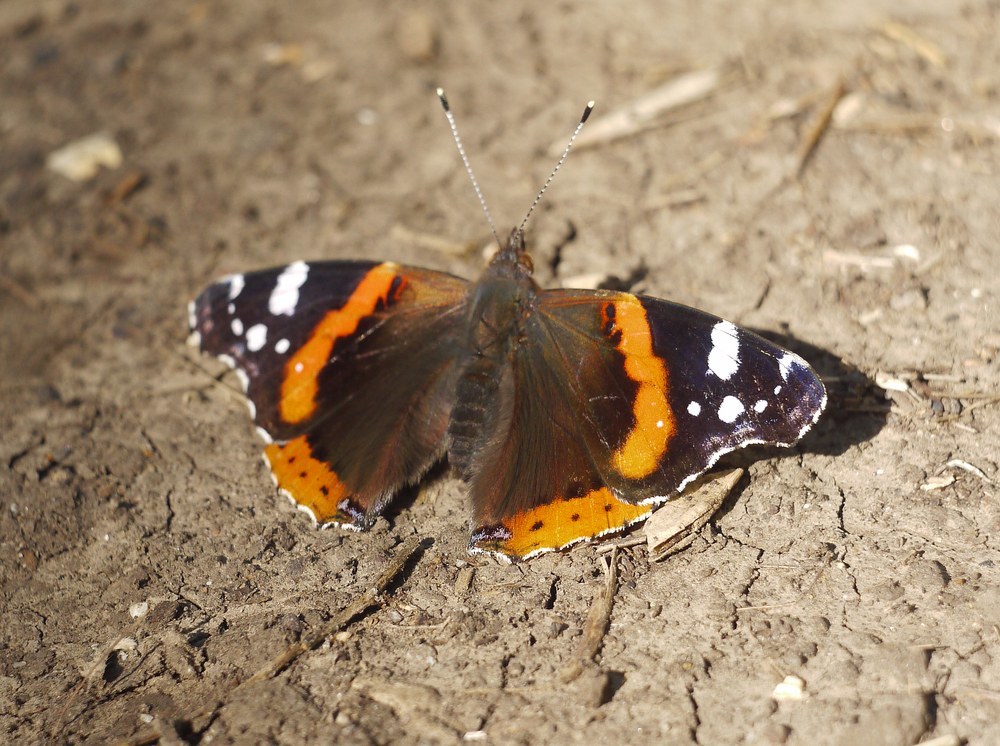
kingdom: Animalia
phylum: Arthropoda
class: Insecta
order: Lepidoptera
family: Nymphalidae
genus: Vanessa
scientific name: Vanessa atalanta
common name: Red admiral
